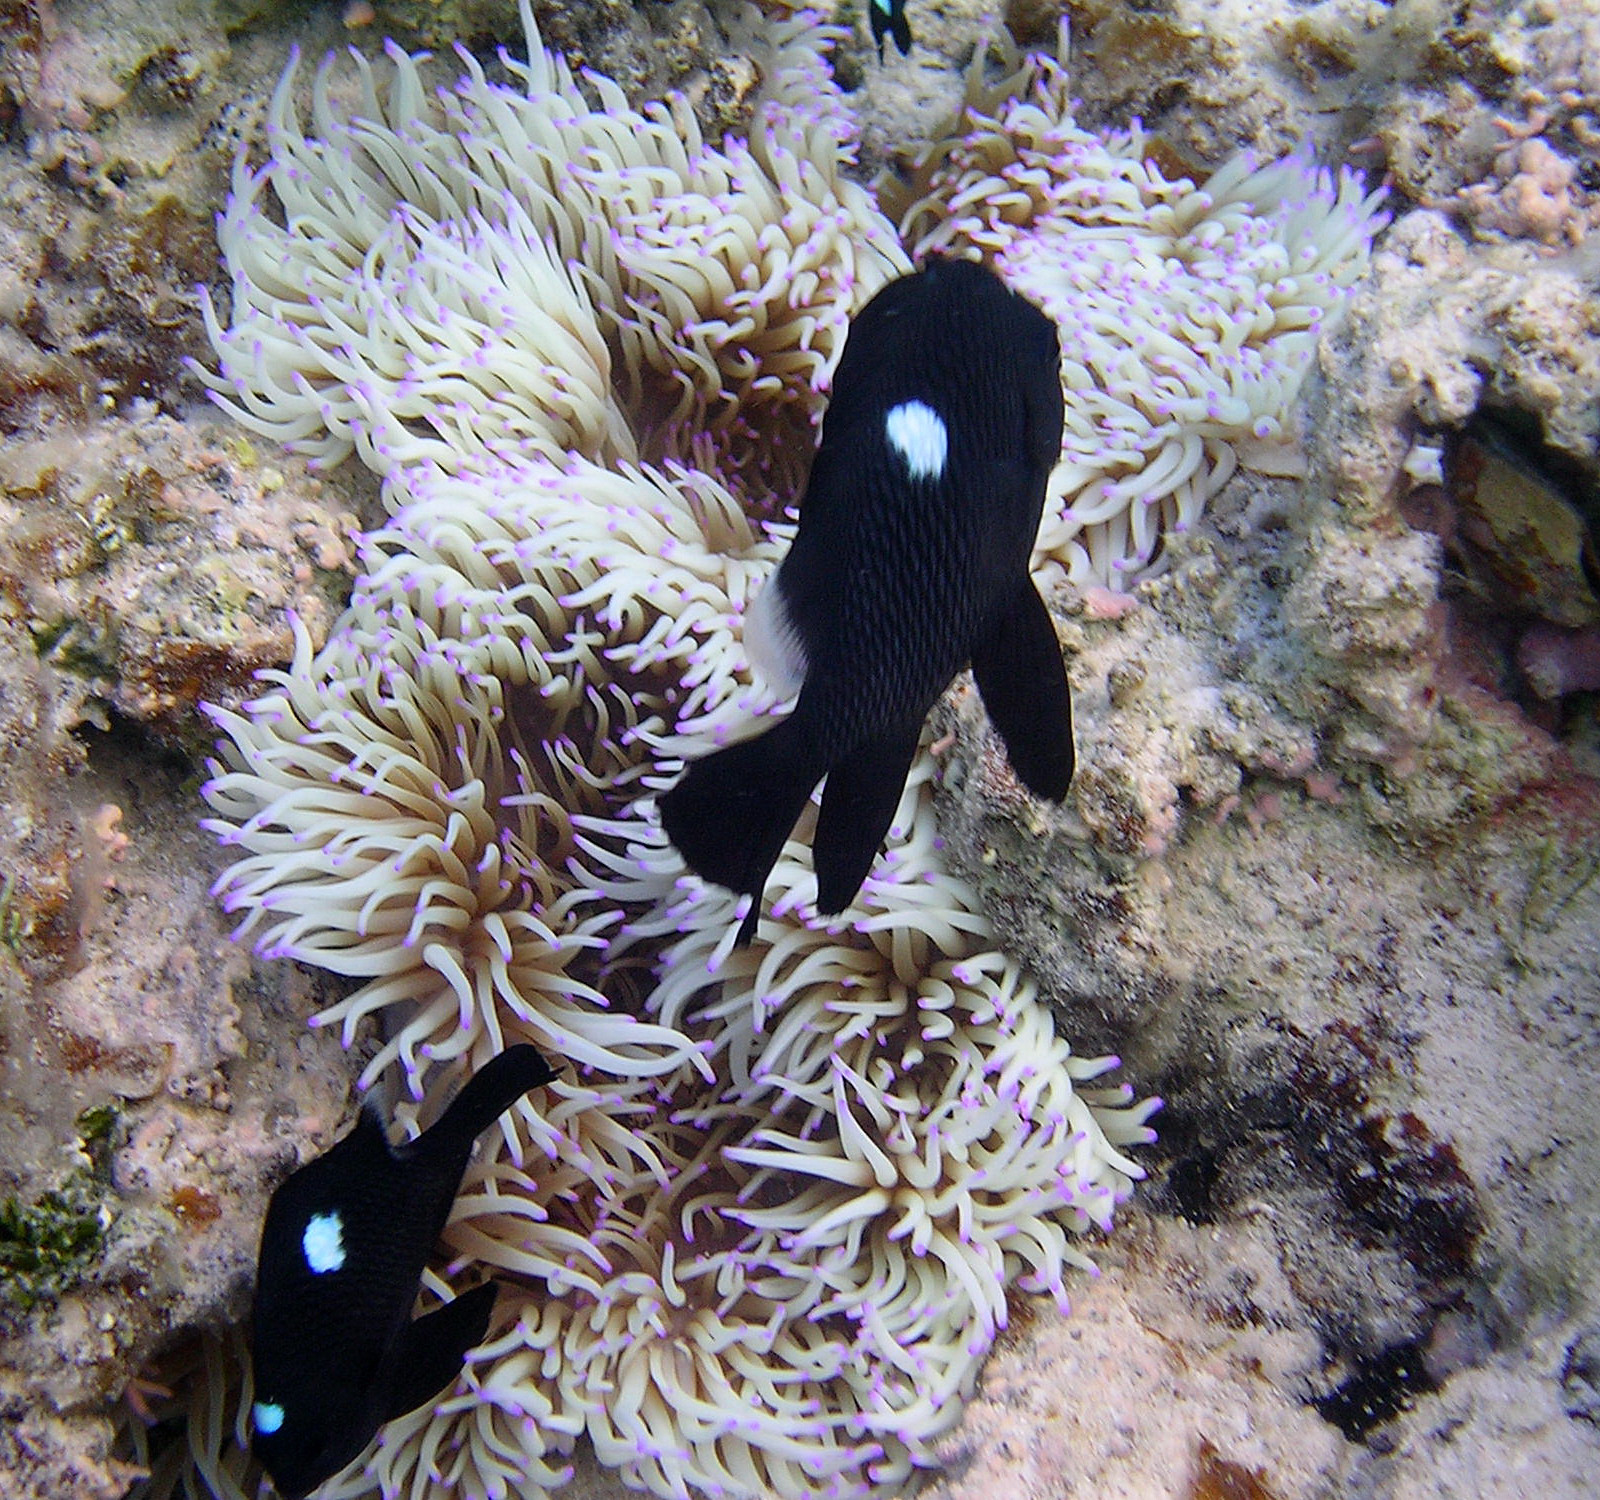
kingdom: Animalia
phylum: Chordata
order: Perciformes
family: Pomacentridae
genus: Dascyllus
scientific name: Dascyllus trimaculatus
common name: Threespot dascyllus
